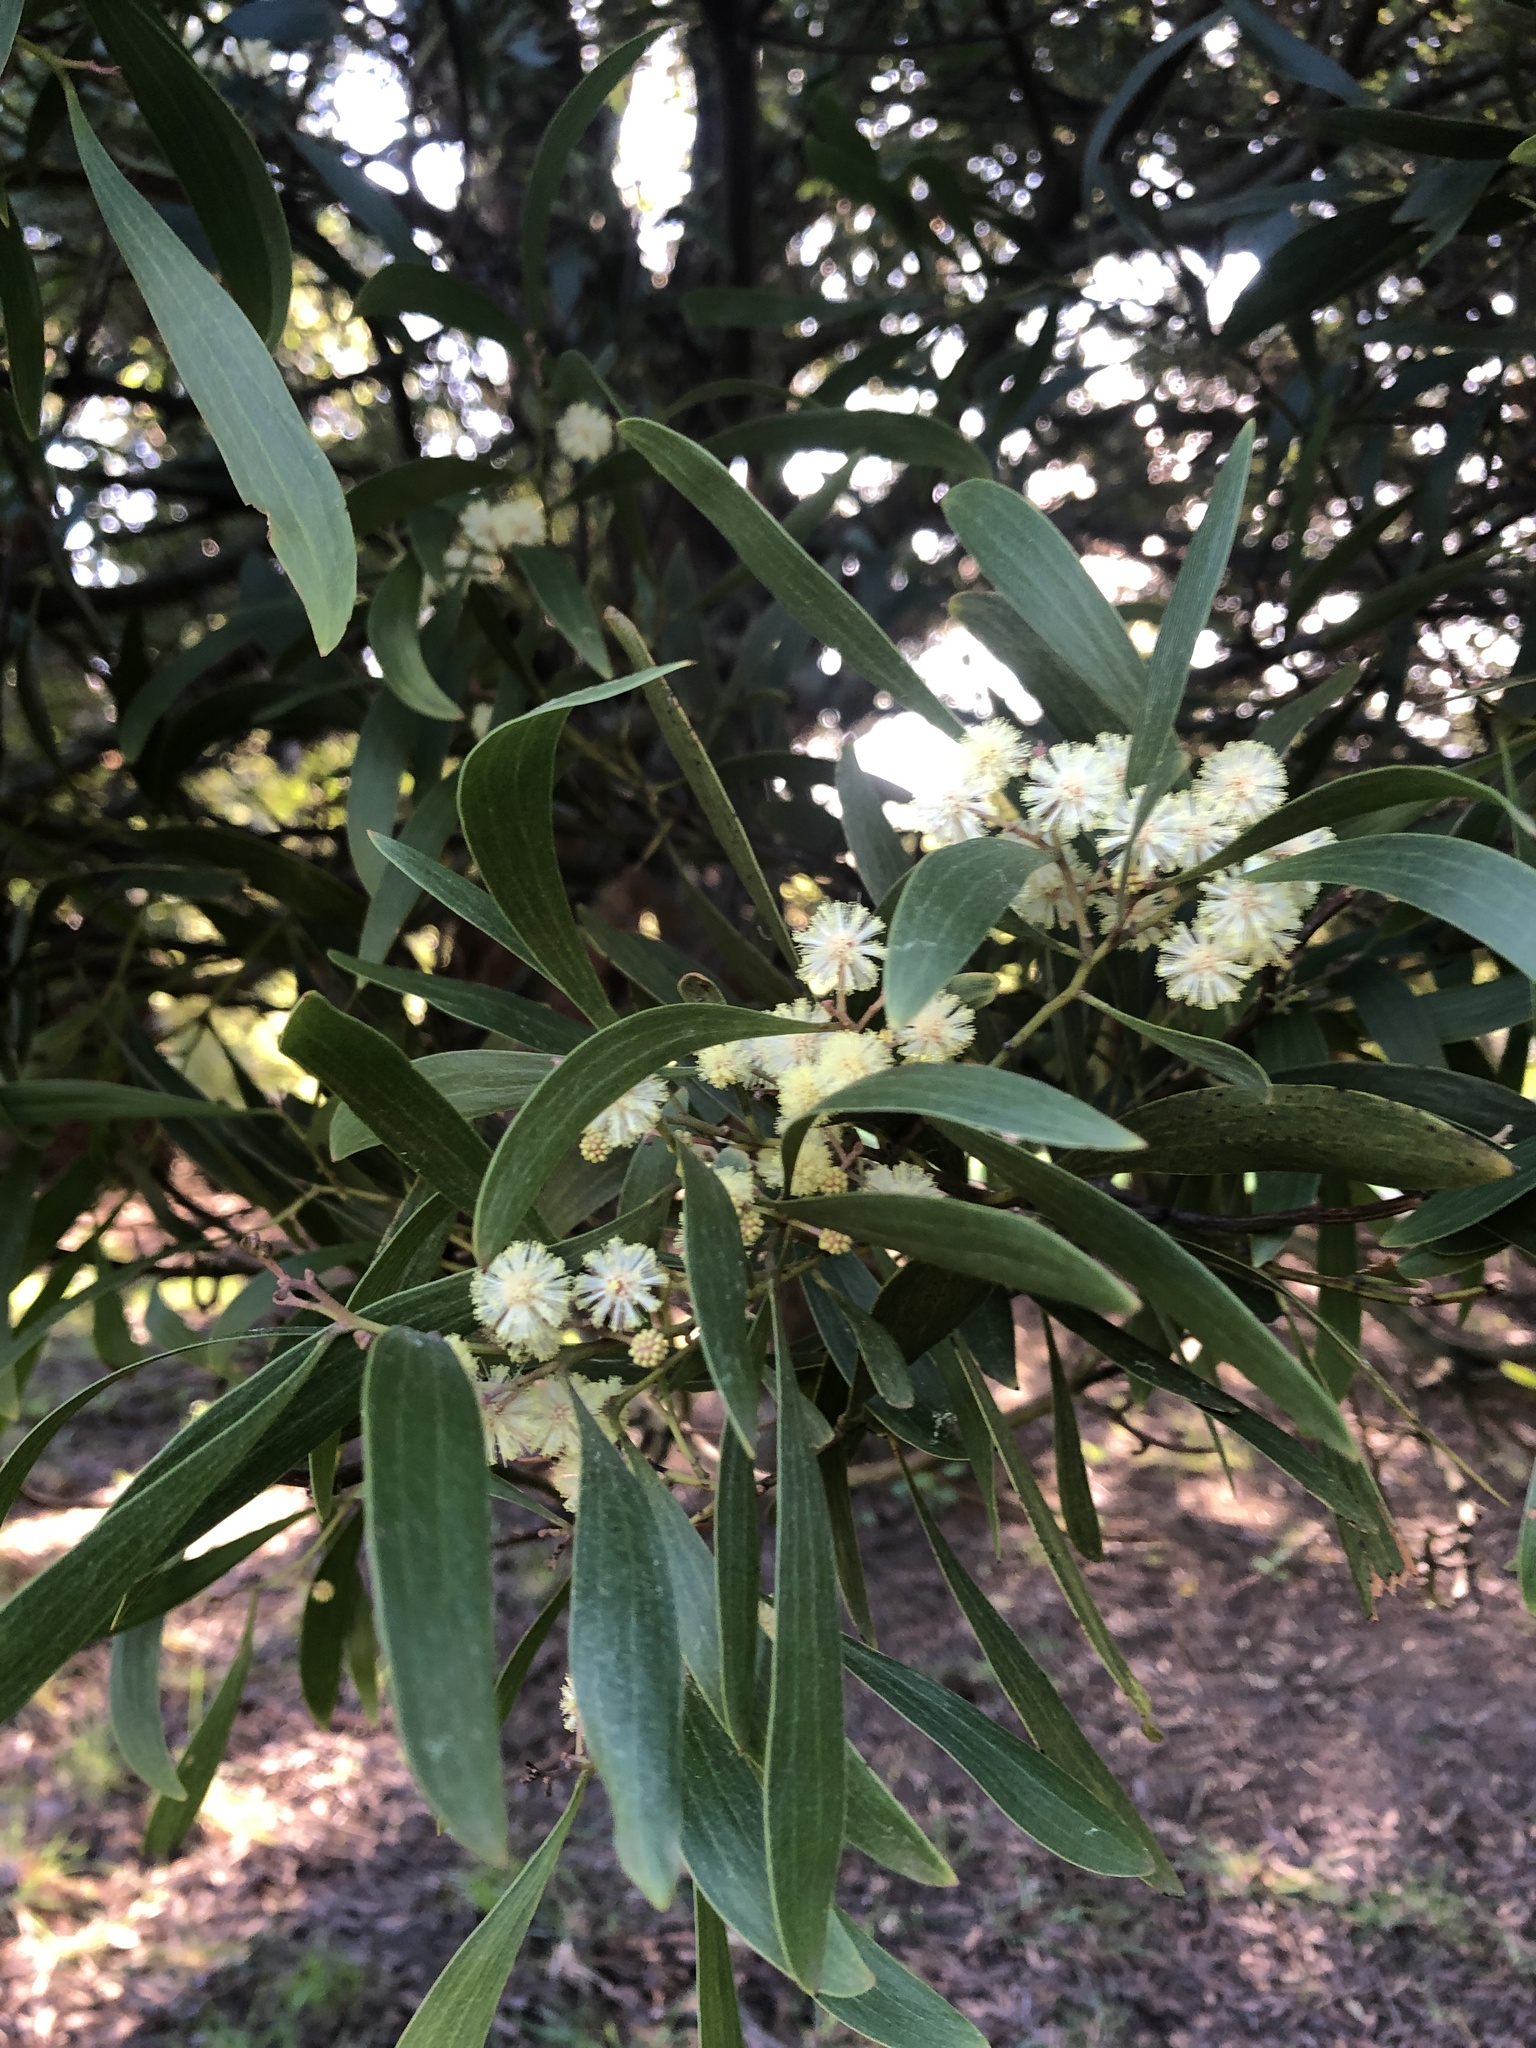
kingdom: Plantae
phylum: Tracheophyta
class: Magnoliopsida
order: Fabales
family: Fabaceae
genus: Acacia
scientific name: Acacia melanoxylon
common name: Blackwood
